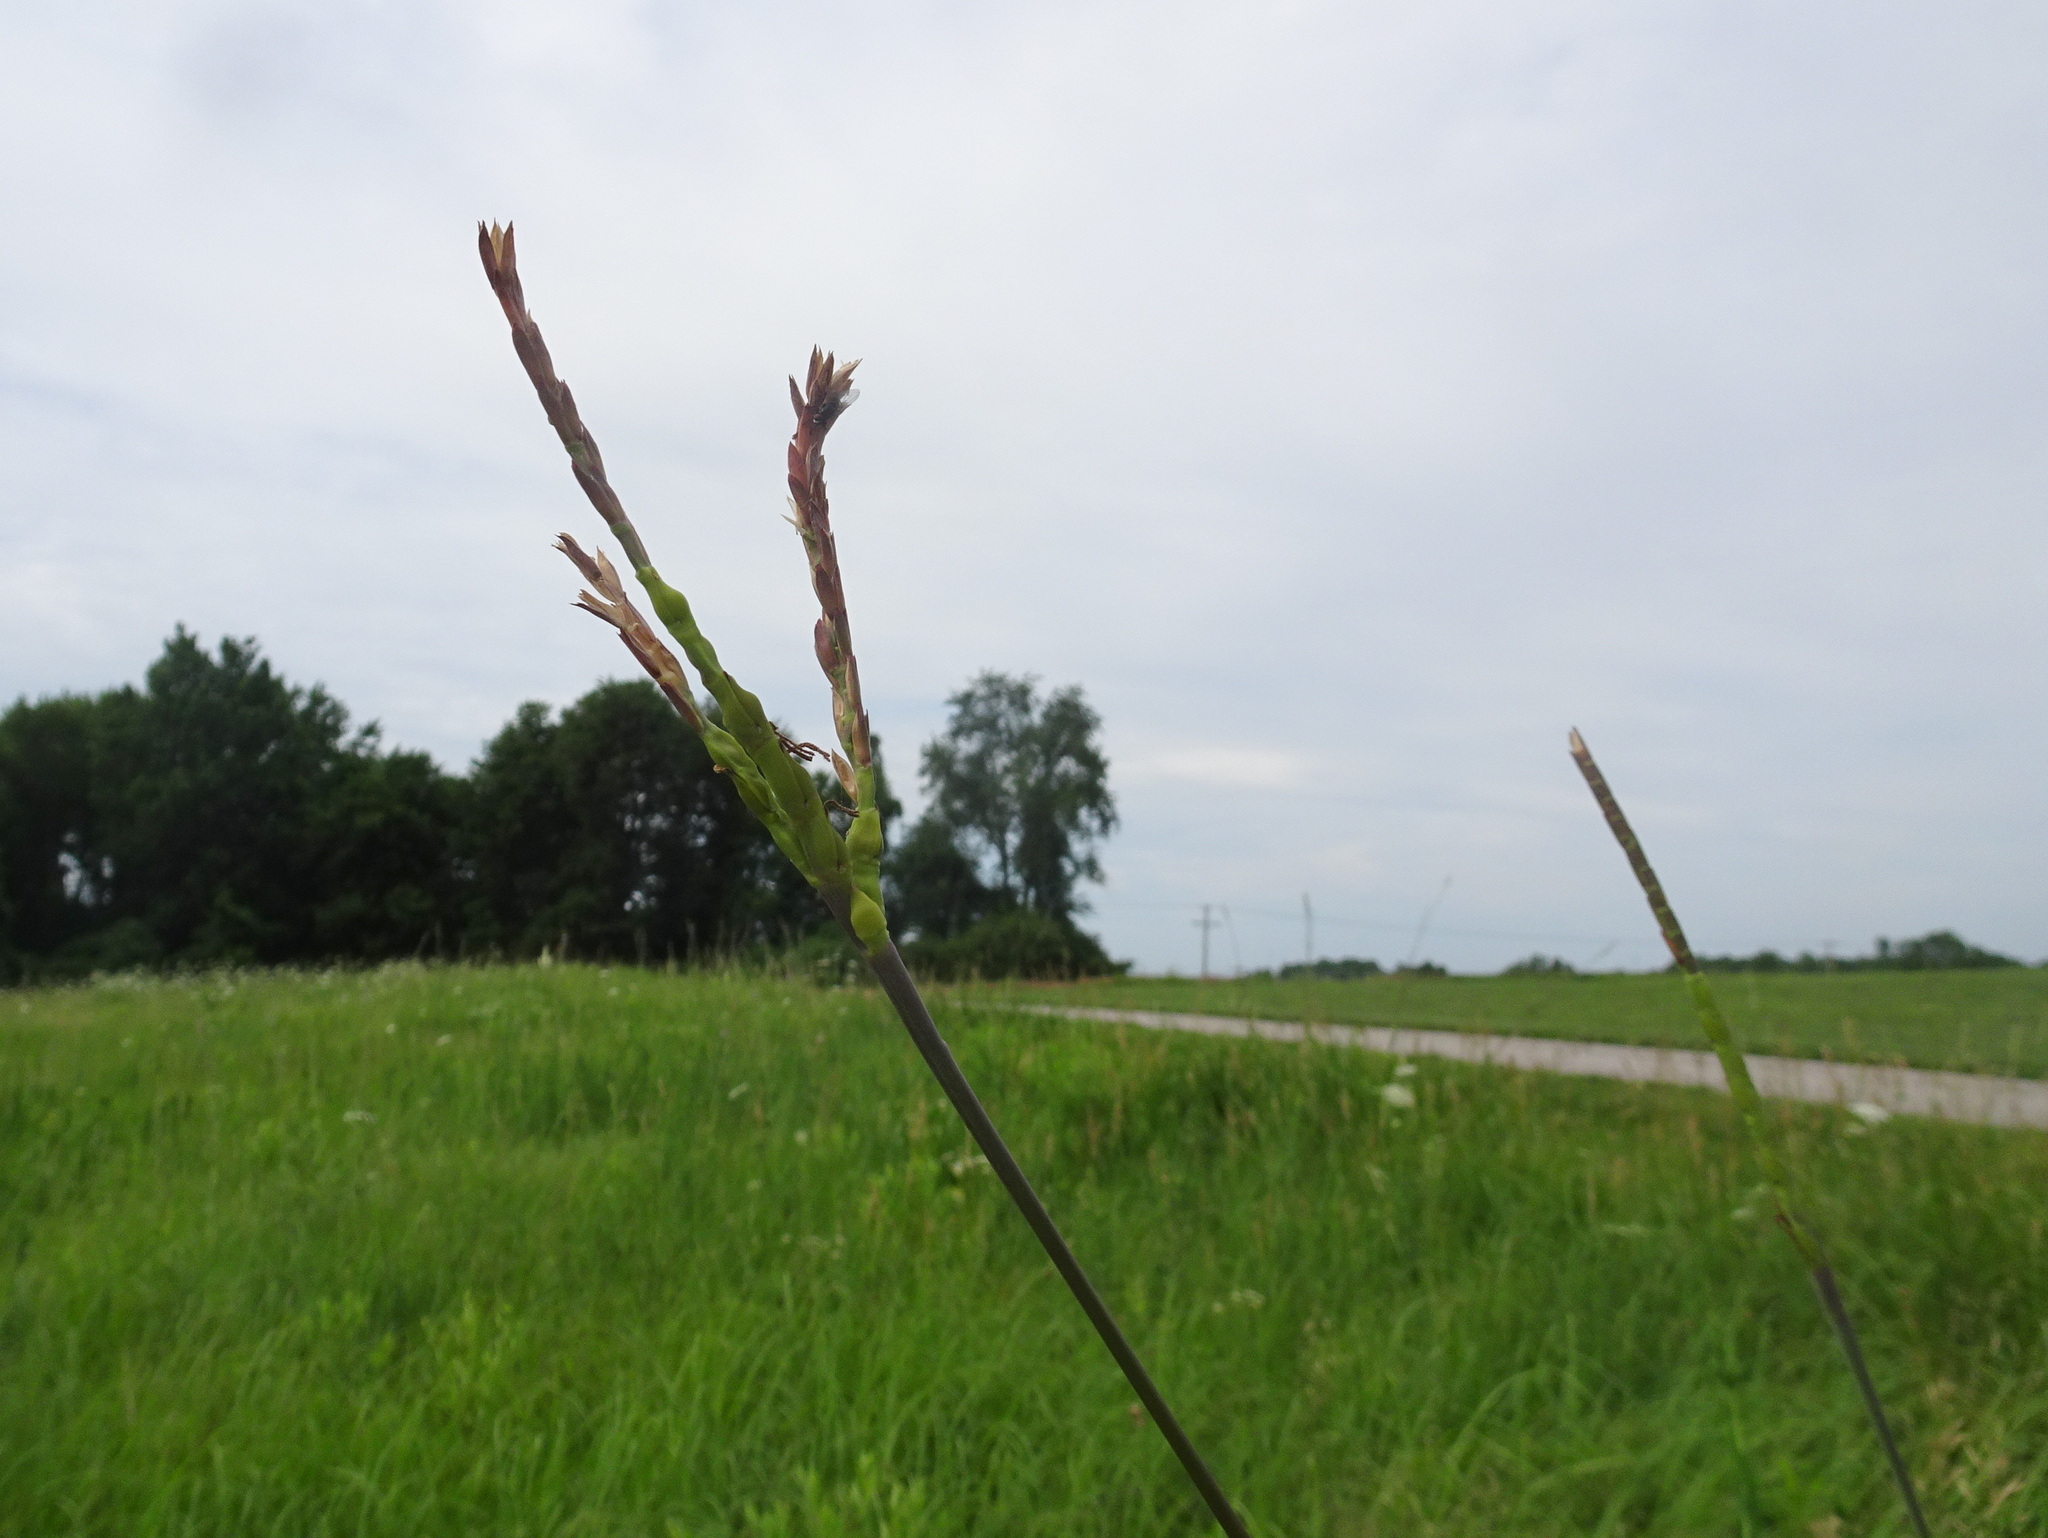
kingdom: Plantae
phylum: Tracheophyta
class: Liliopsida
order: Poales
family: Poaceae
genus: Tripsacum
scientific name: Tripsacum dactyloides
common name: Buffalo-grass
